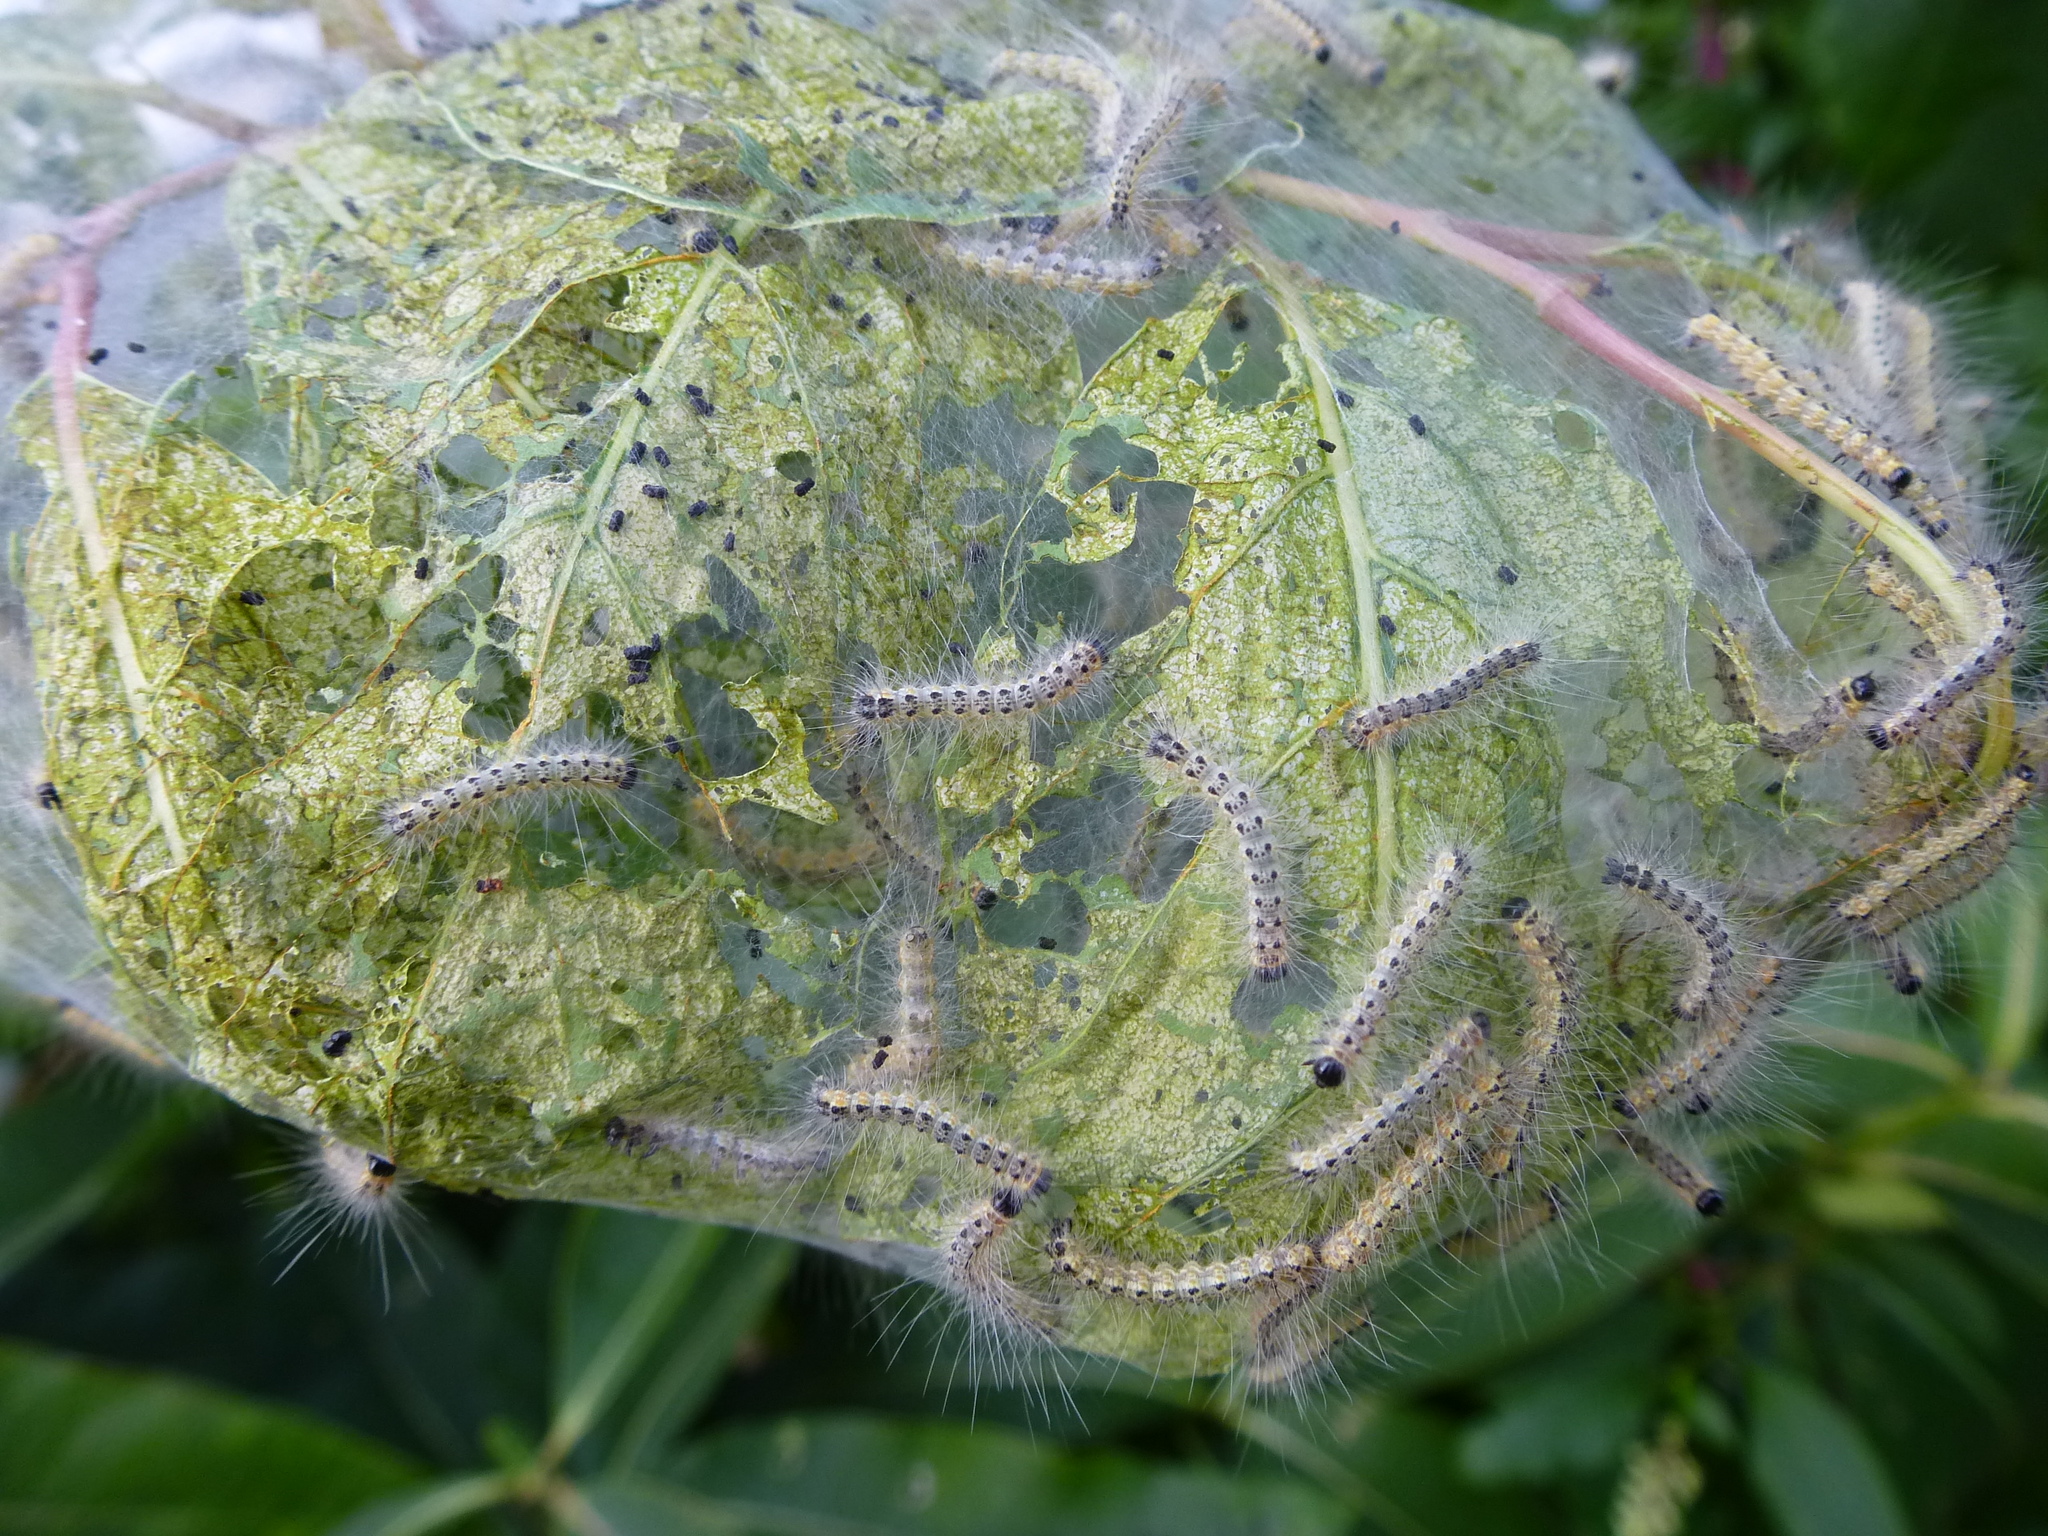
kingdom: Animalia
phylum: Arthropoda
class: Insecta
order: Lepidoptera
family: Erebidae
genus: Hyphantria
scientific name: Hyphantria cunea
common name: American white moth
